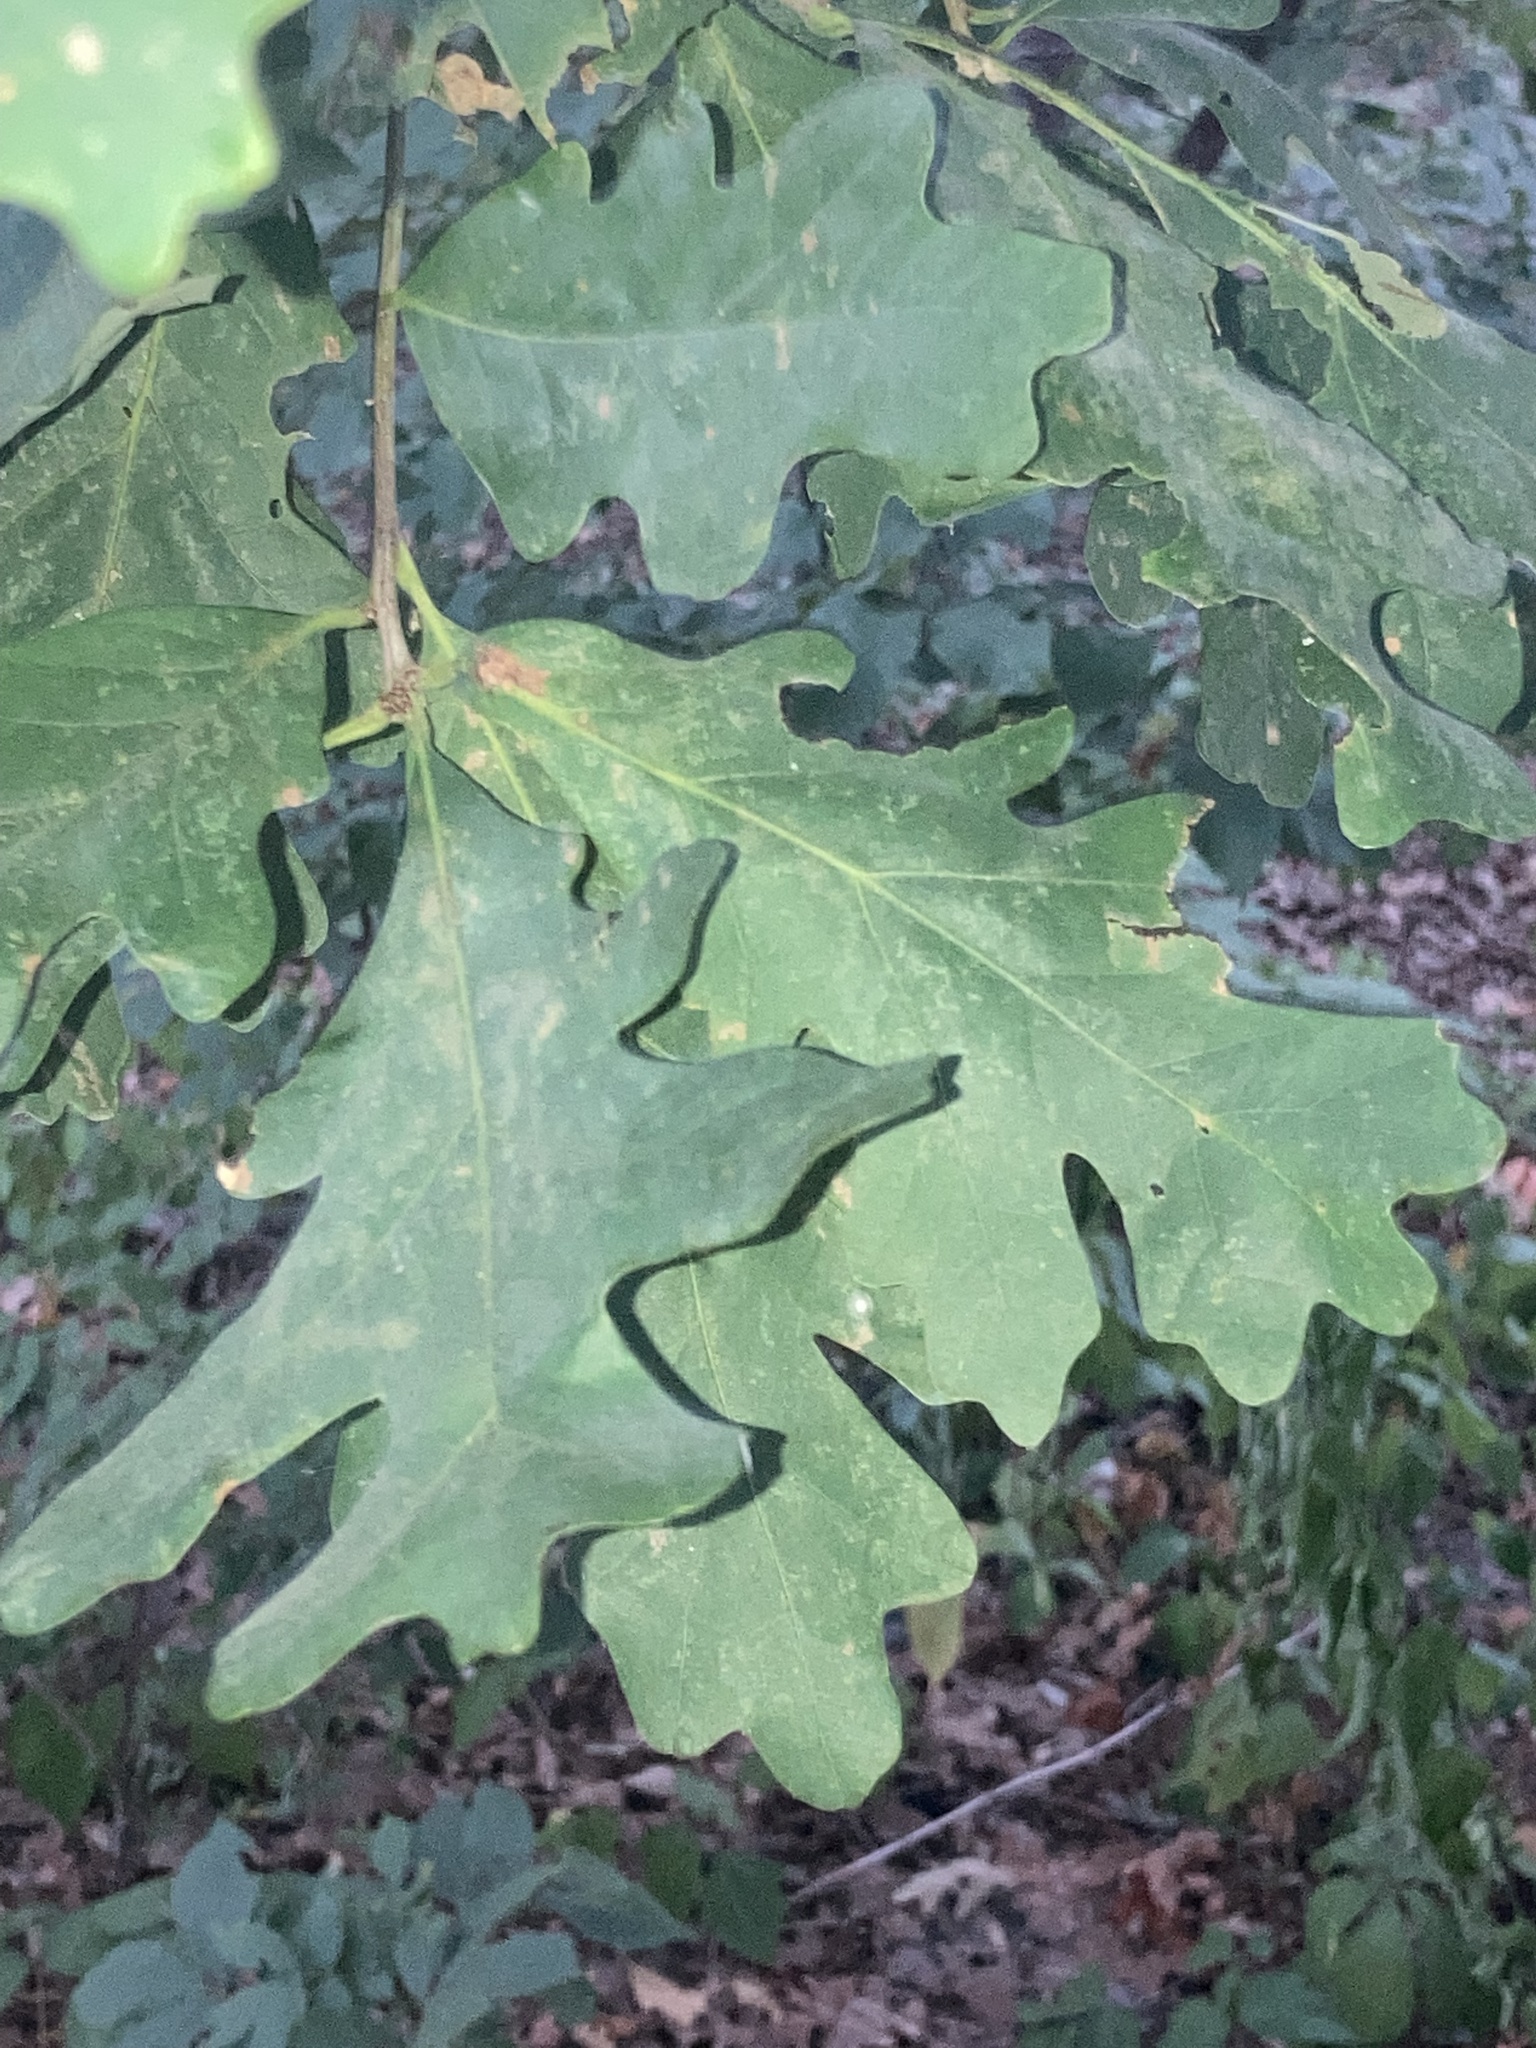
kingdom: Plantae
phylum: Tracheophyta
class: Magnoliopsida
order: Fagales
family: Fagaceae
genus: Quercus
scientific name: Quercus alba
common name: White oak
